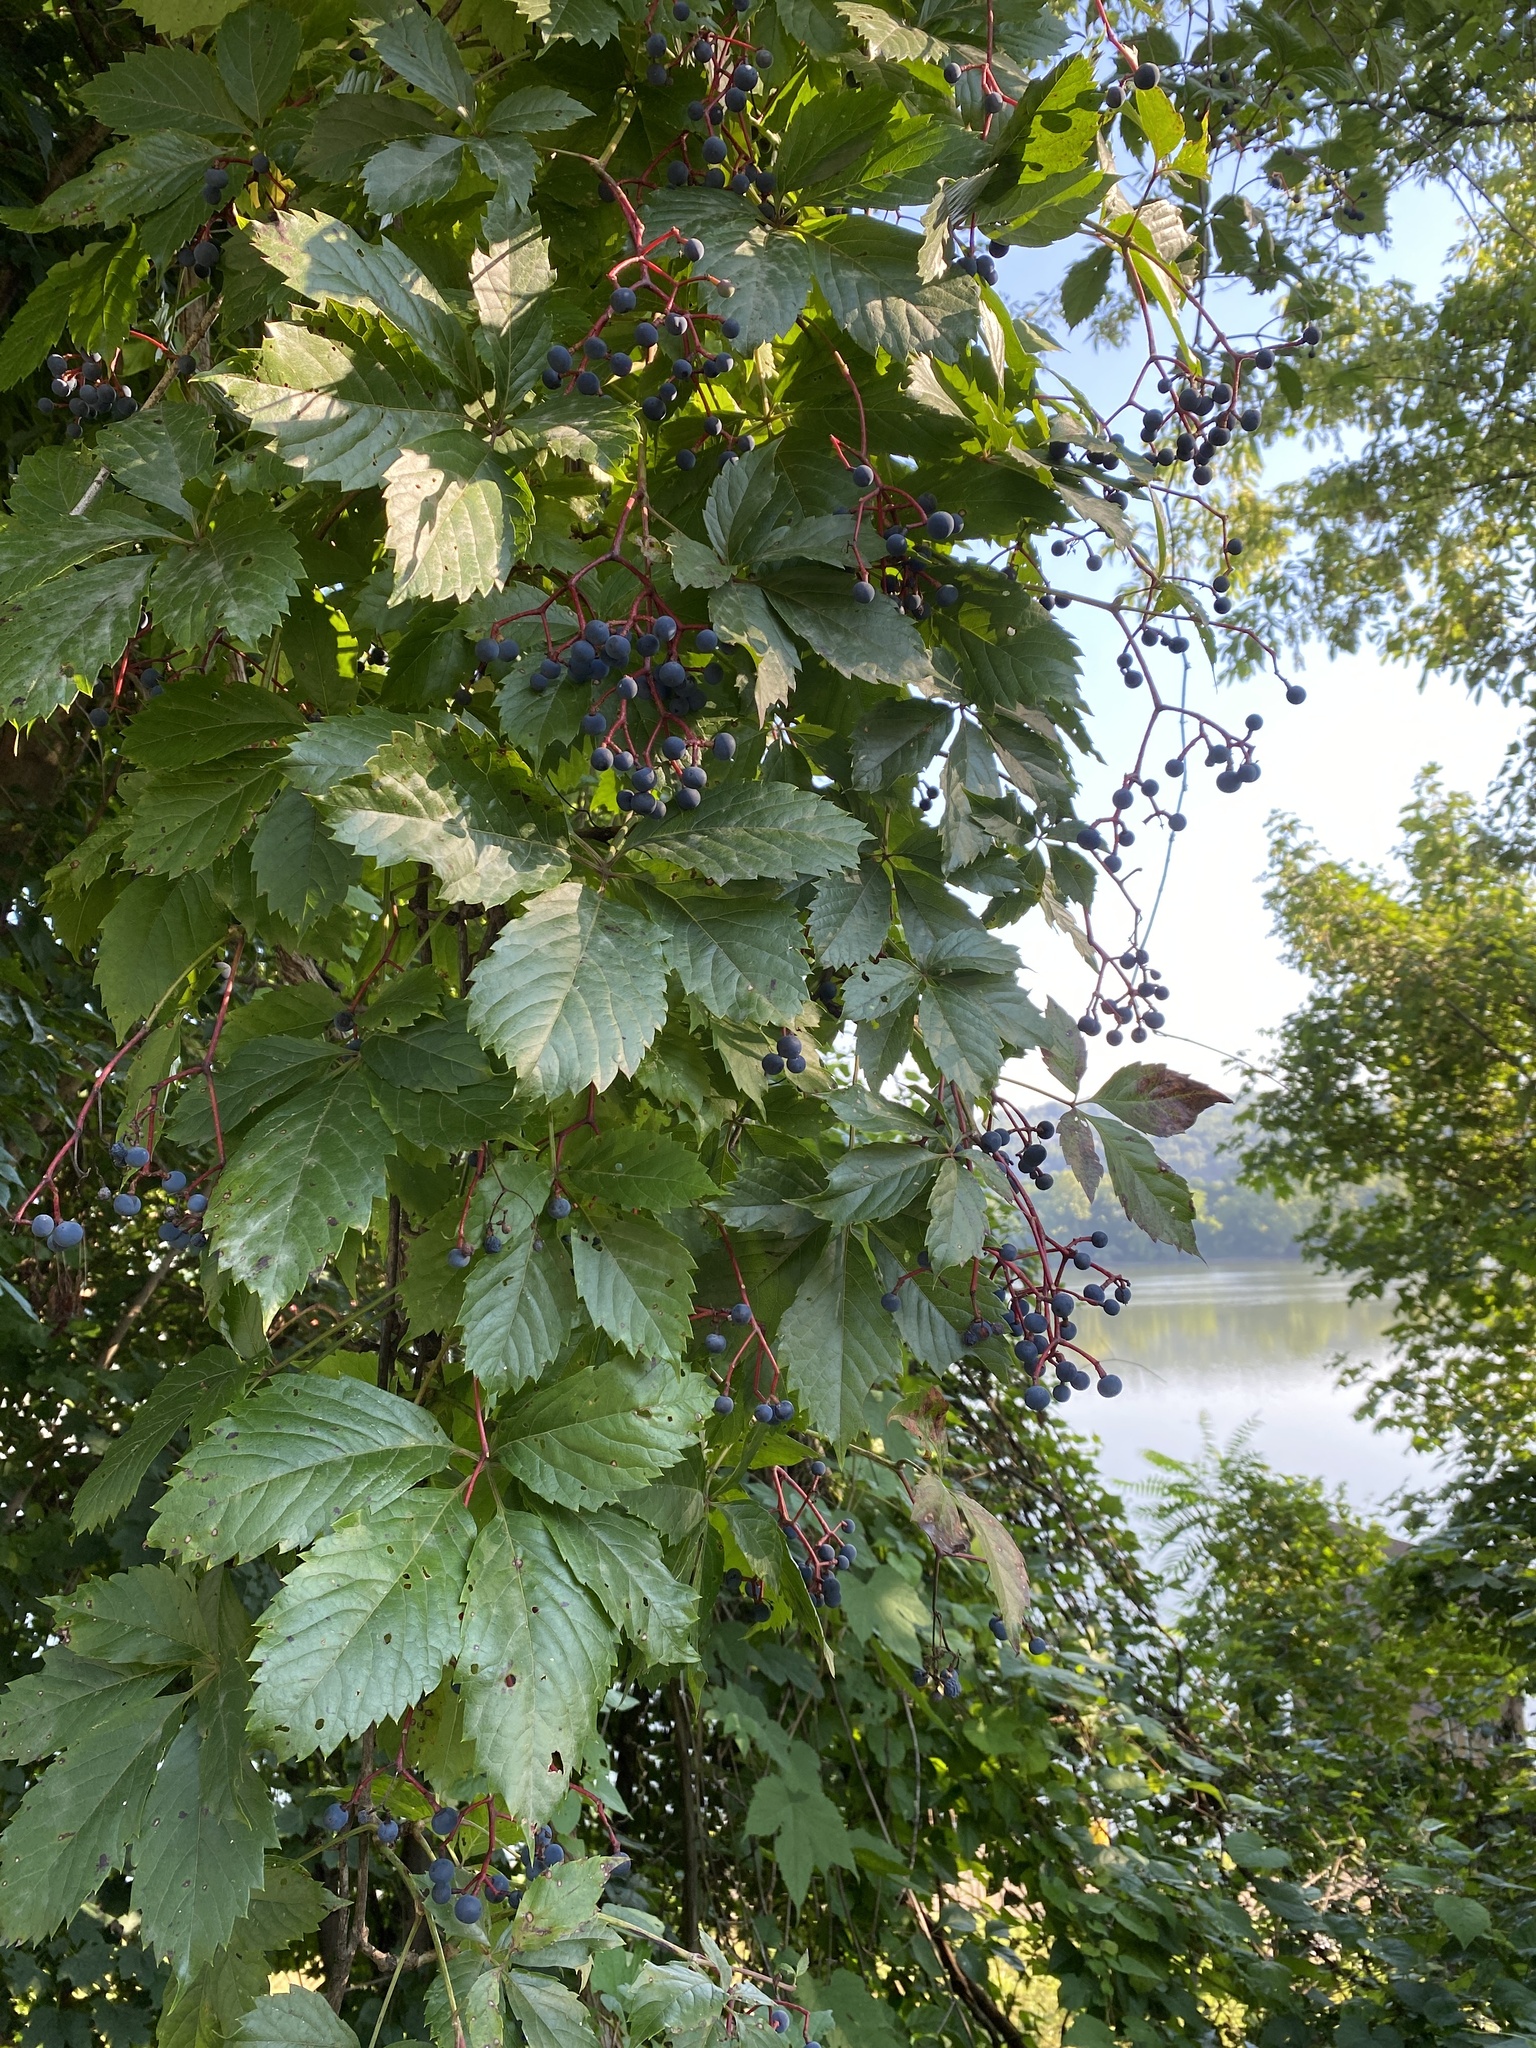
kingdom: Plantae
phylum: Tracheophyta
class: Magnoliopsida
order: Vitales
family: Vitaceae
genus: Parthenocissus
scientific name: Parthenocissus inserta
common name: False virginia-creeper
